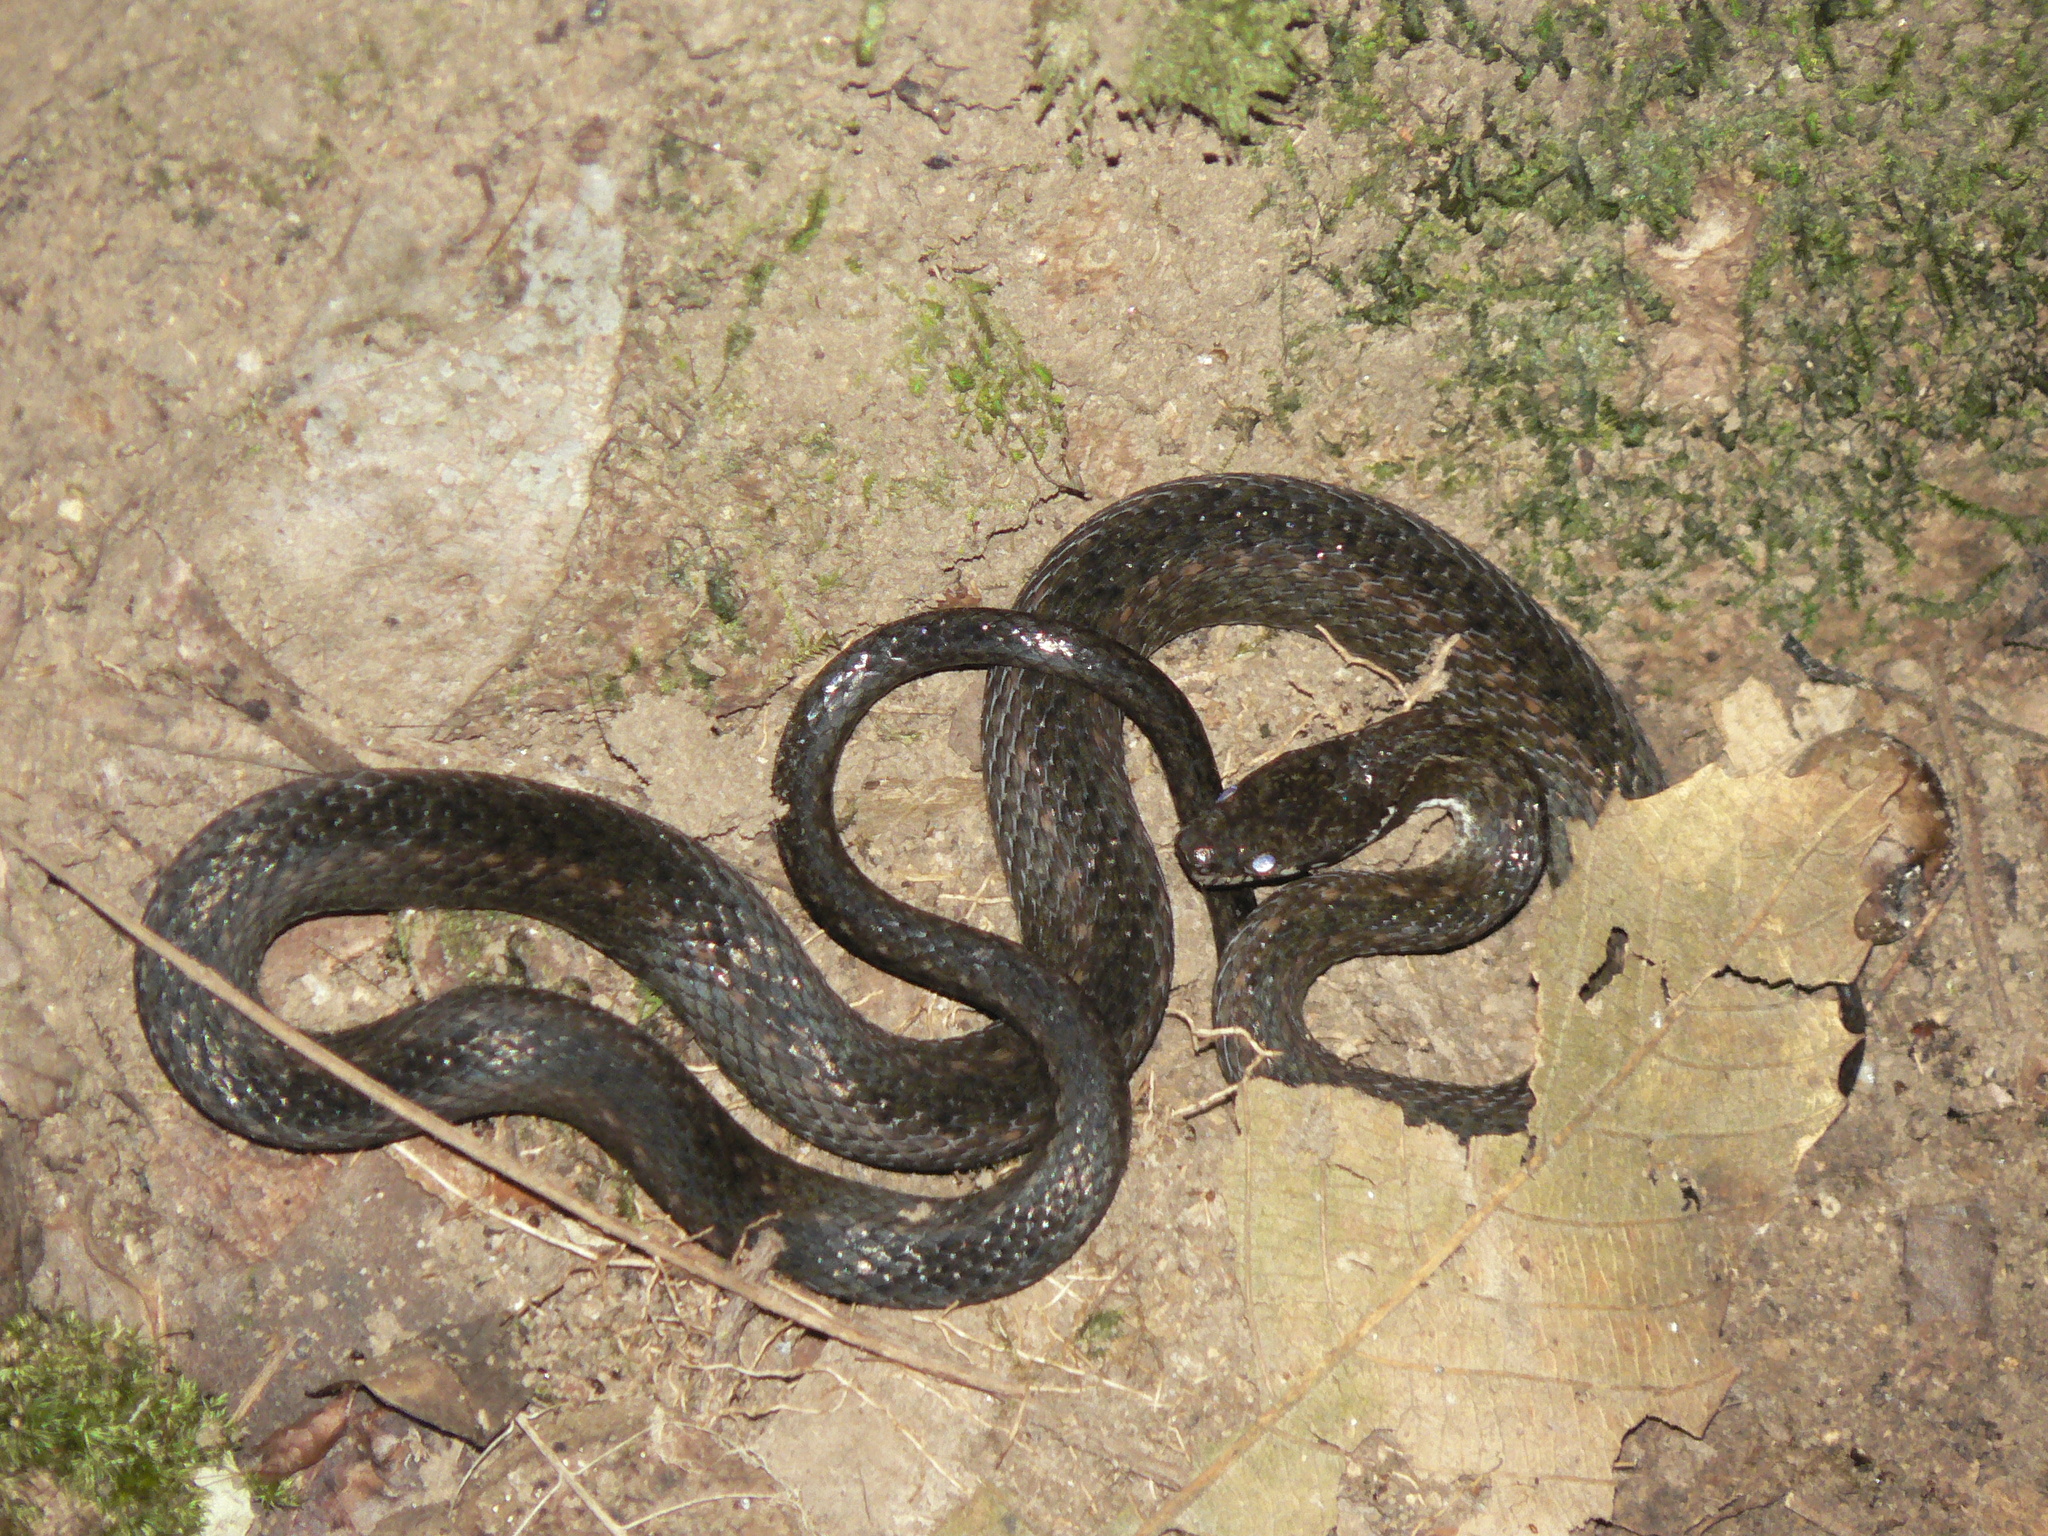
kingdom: Animalia
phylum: Chordata
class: Squamata
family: Colubridae
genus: Hebius
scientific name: Hebius khasiensis
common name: Khasi hills keelback
